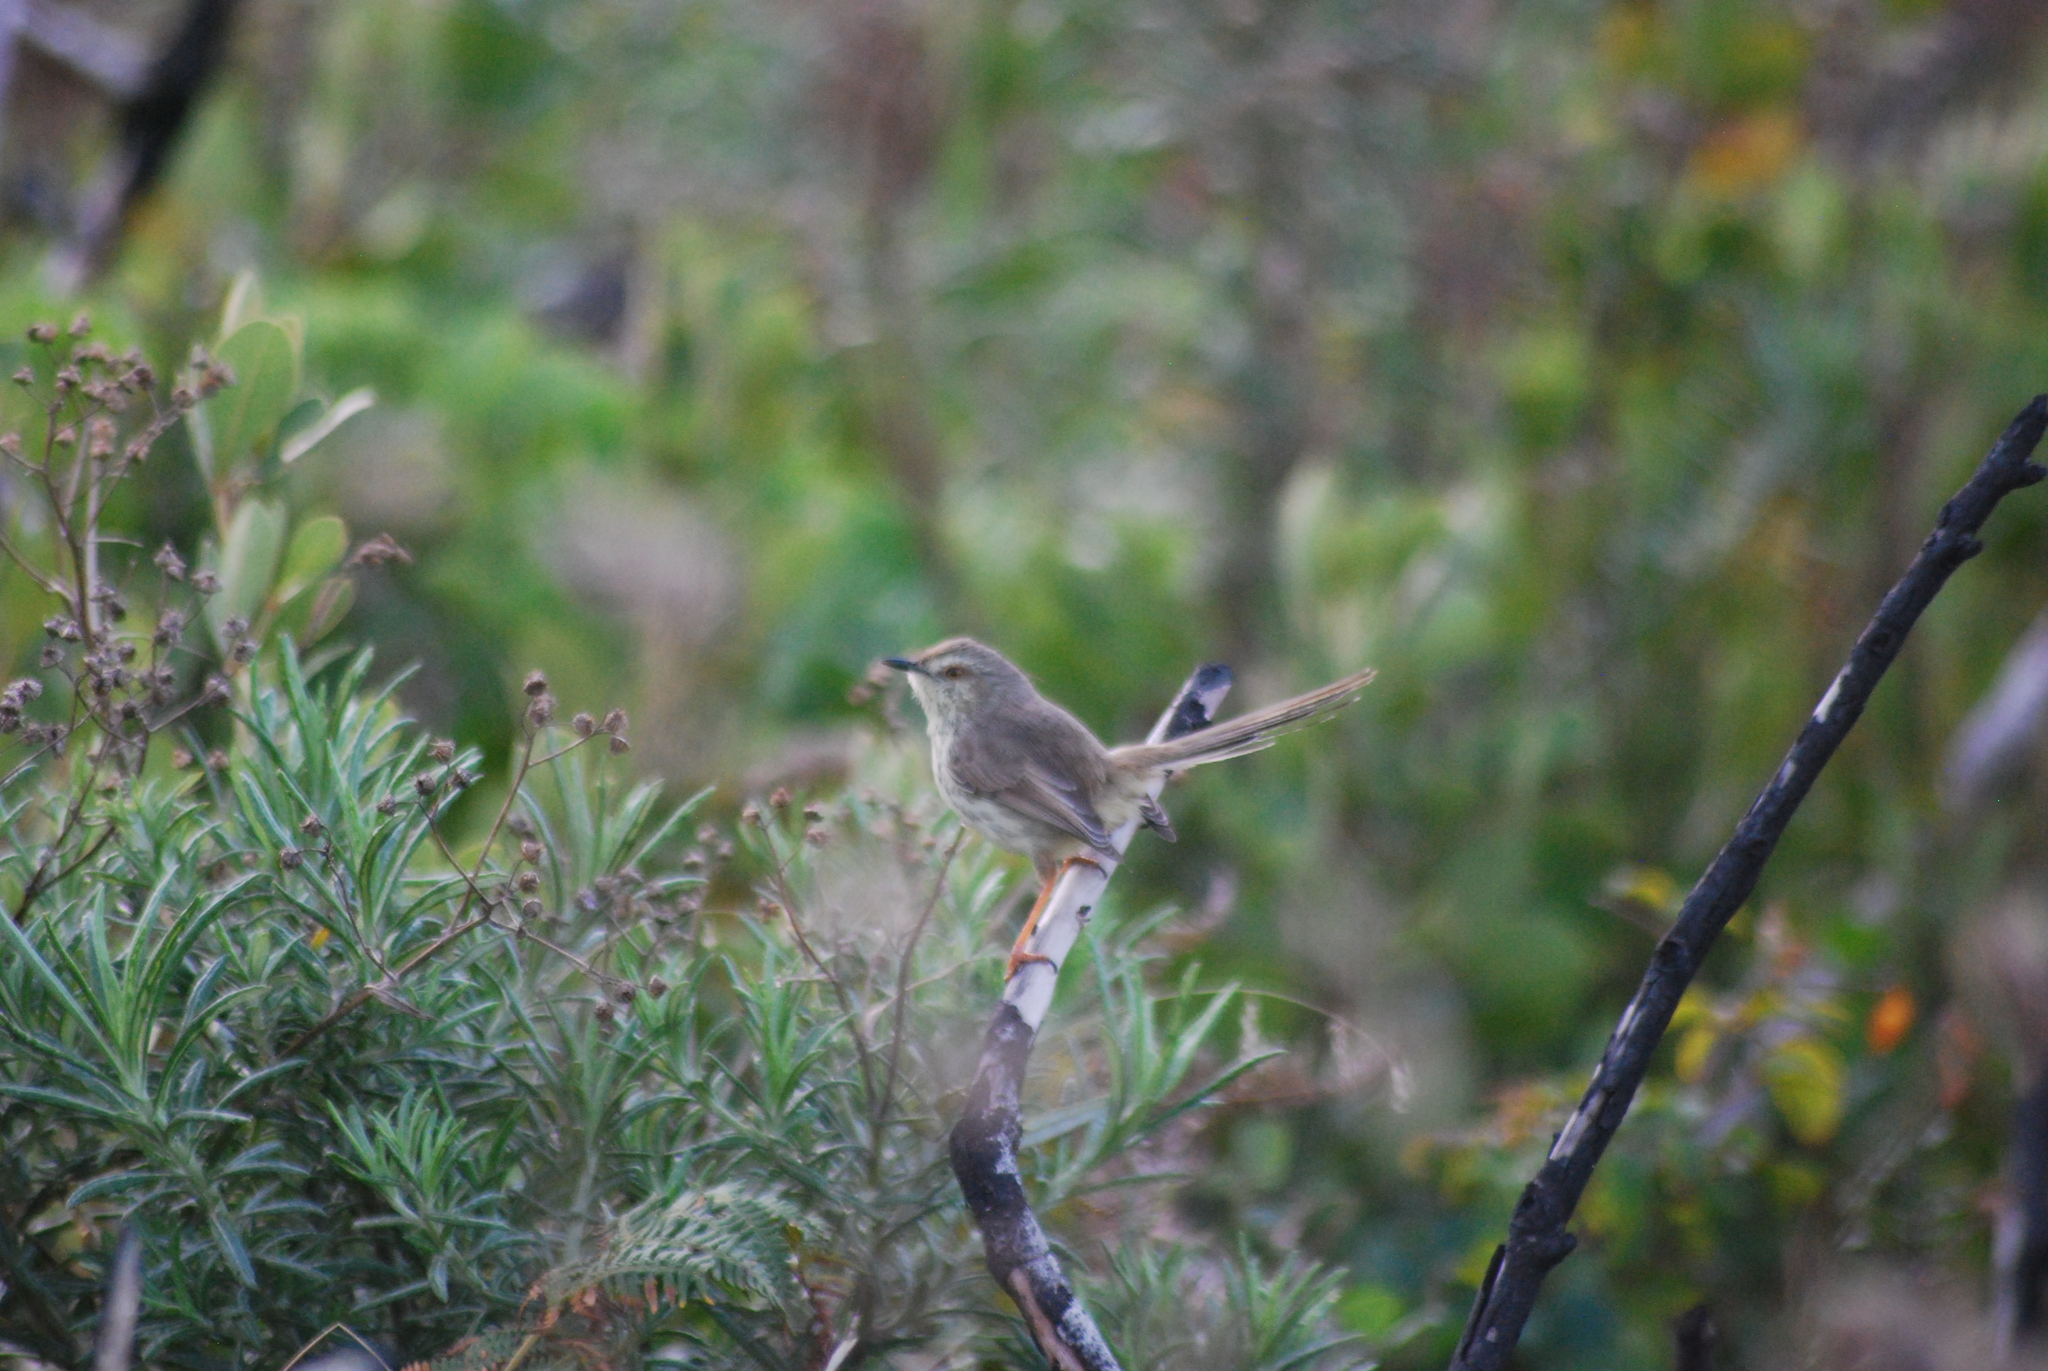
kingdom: Animalia
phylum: Chordata
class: Aves
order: Passeriformes
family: Cisticolidae
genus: Prinia
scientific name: Prinia maculosa
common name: Karoo prinia
